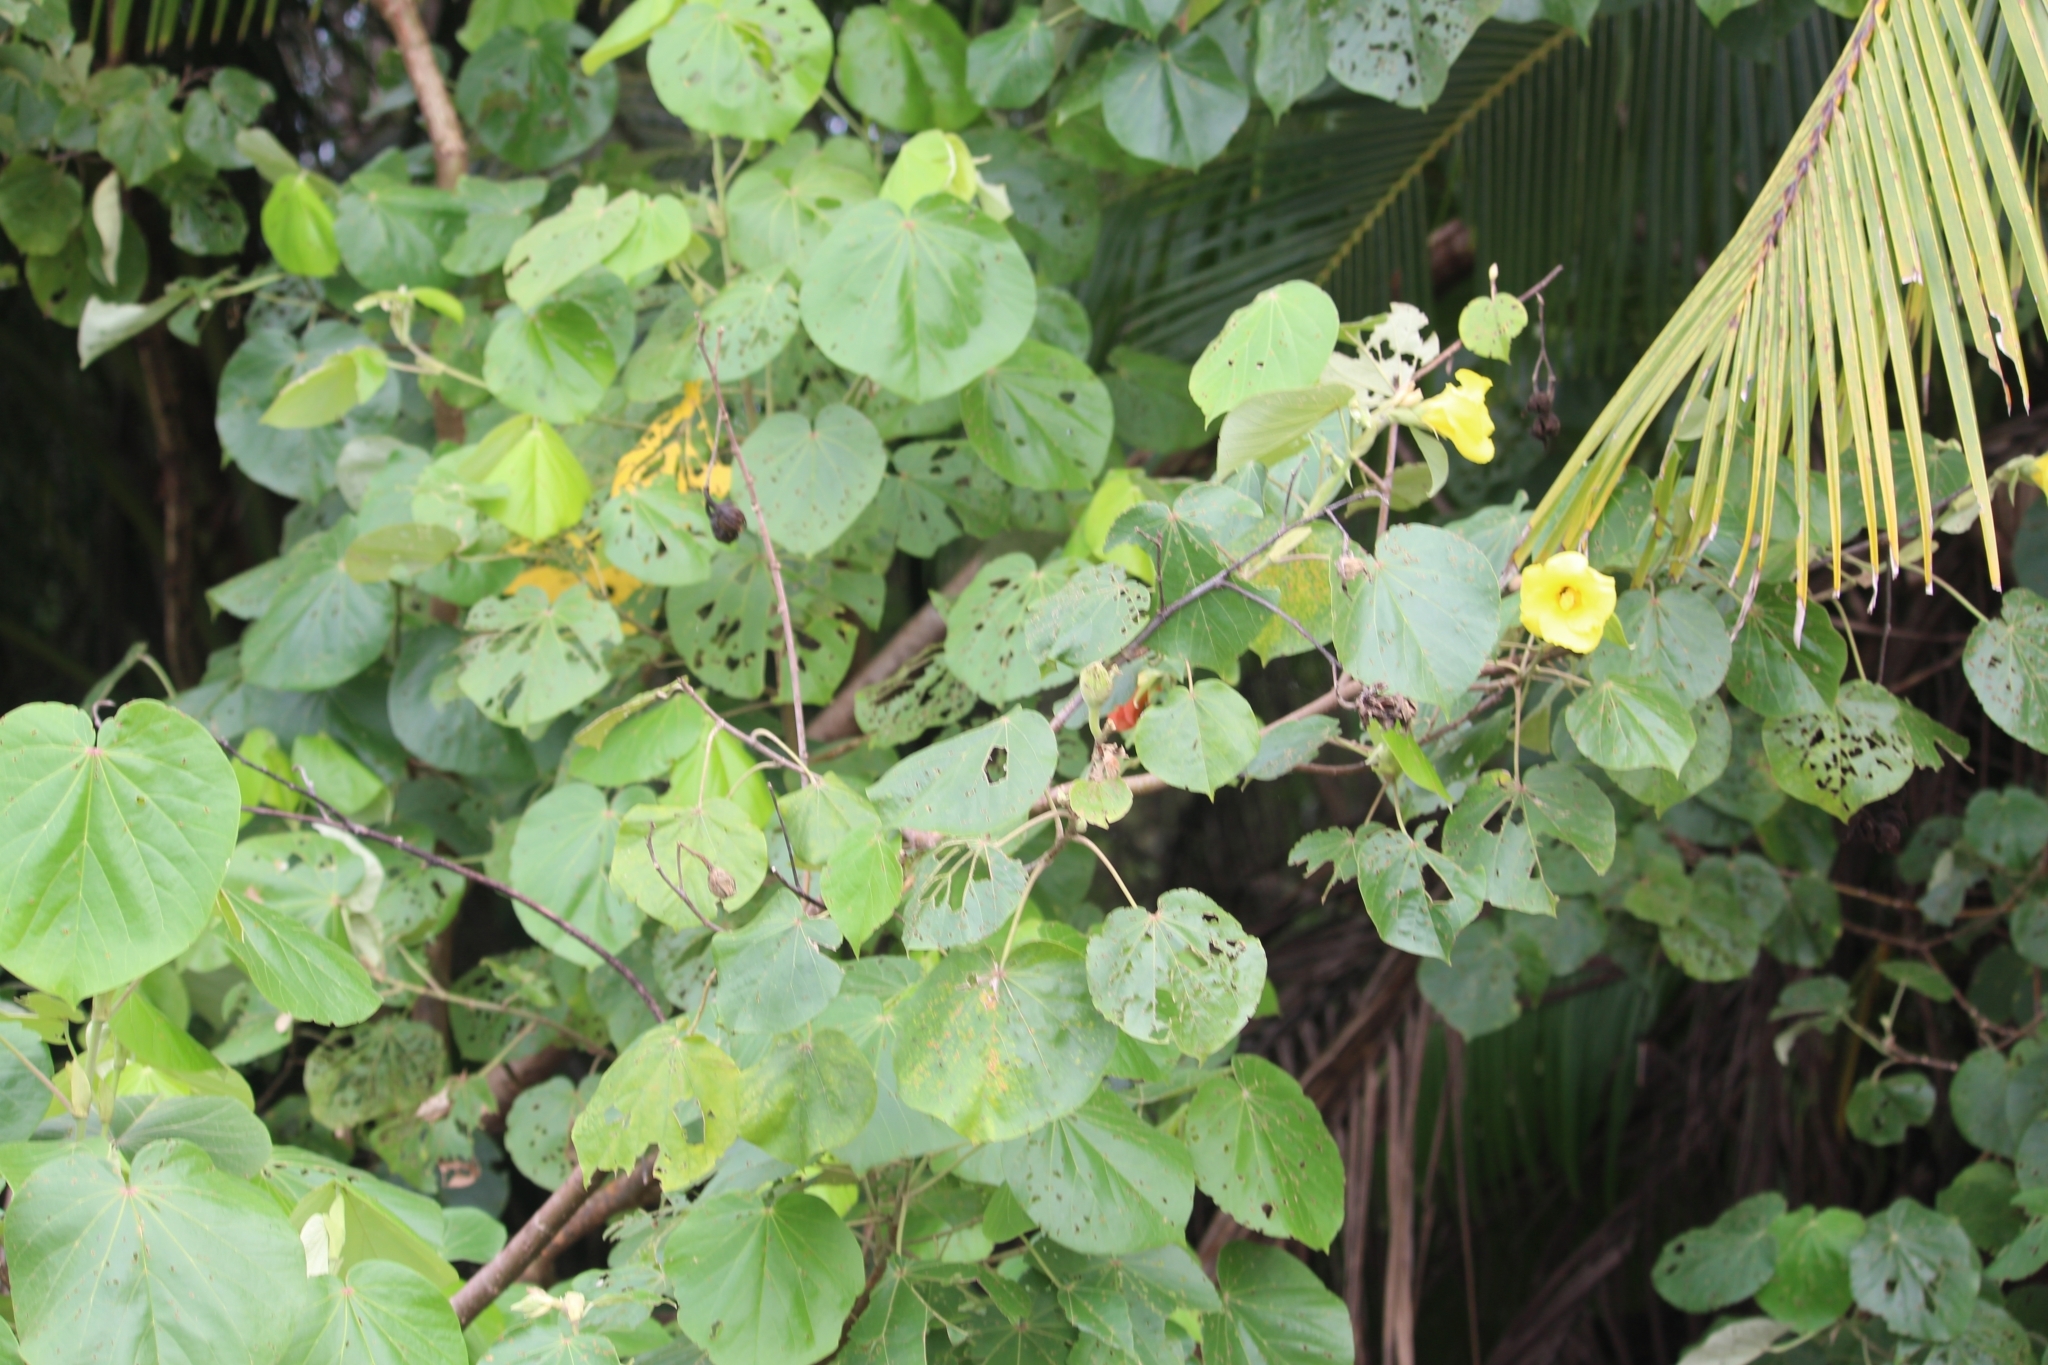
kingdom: Plantae
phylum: Tracheophyta
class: Magnoliopsida
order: Malvales
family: Malvaceae
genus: Talipariti
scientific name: Talipariti pernambucense
